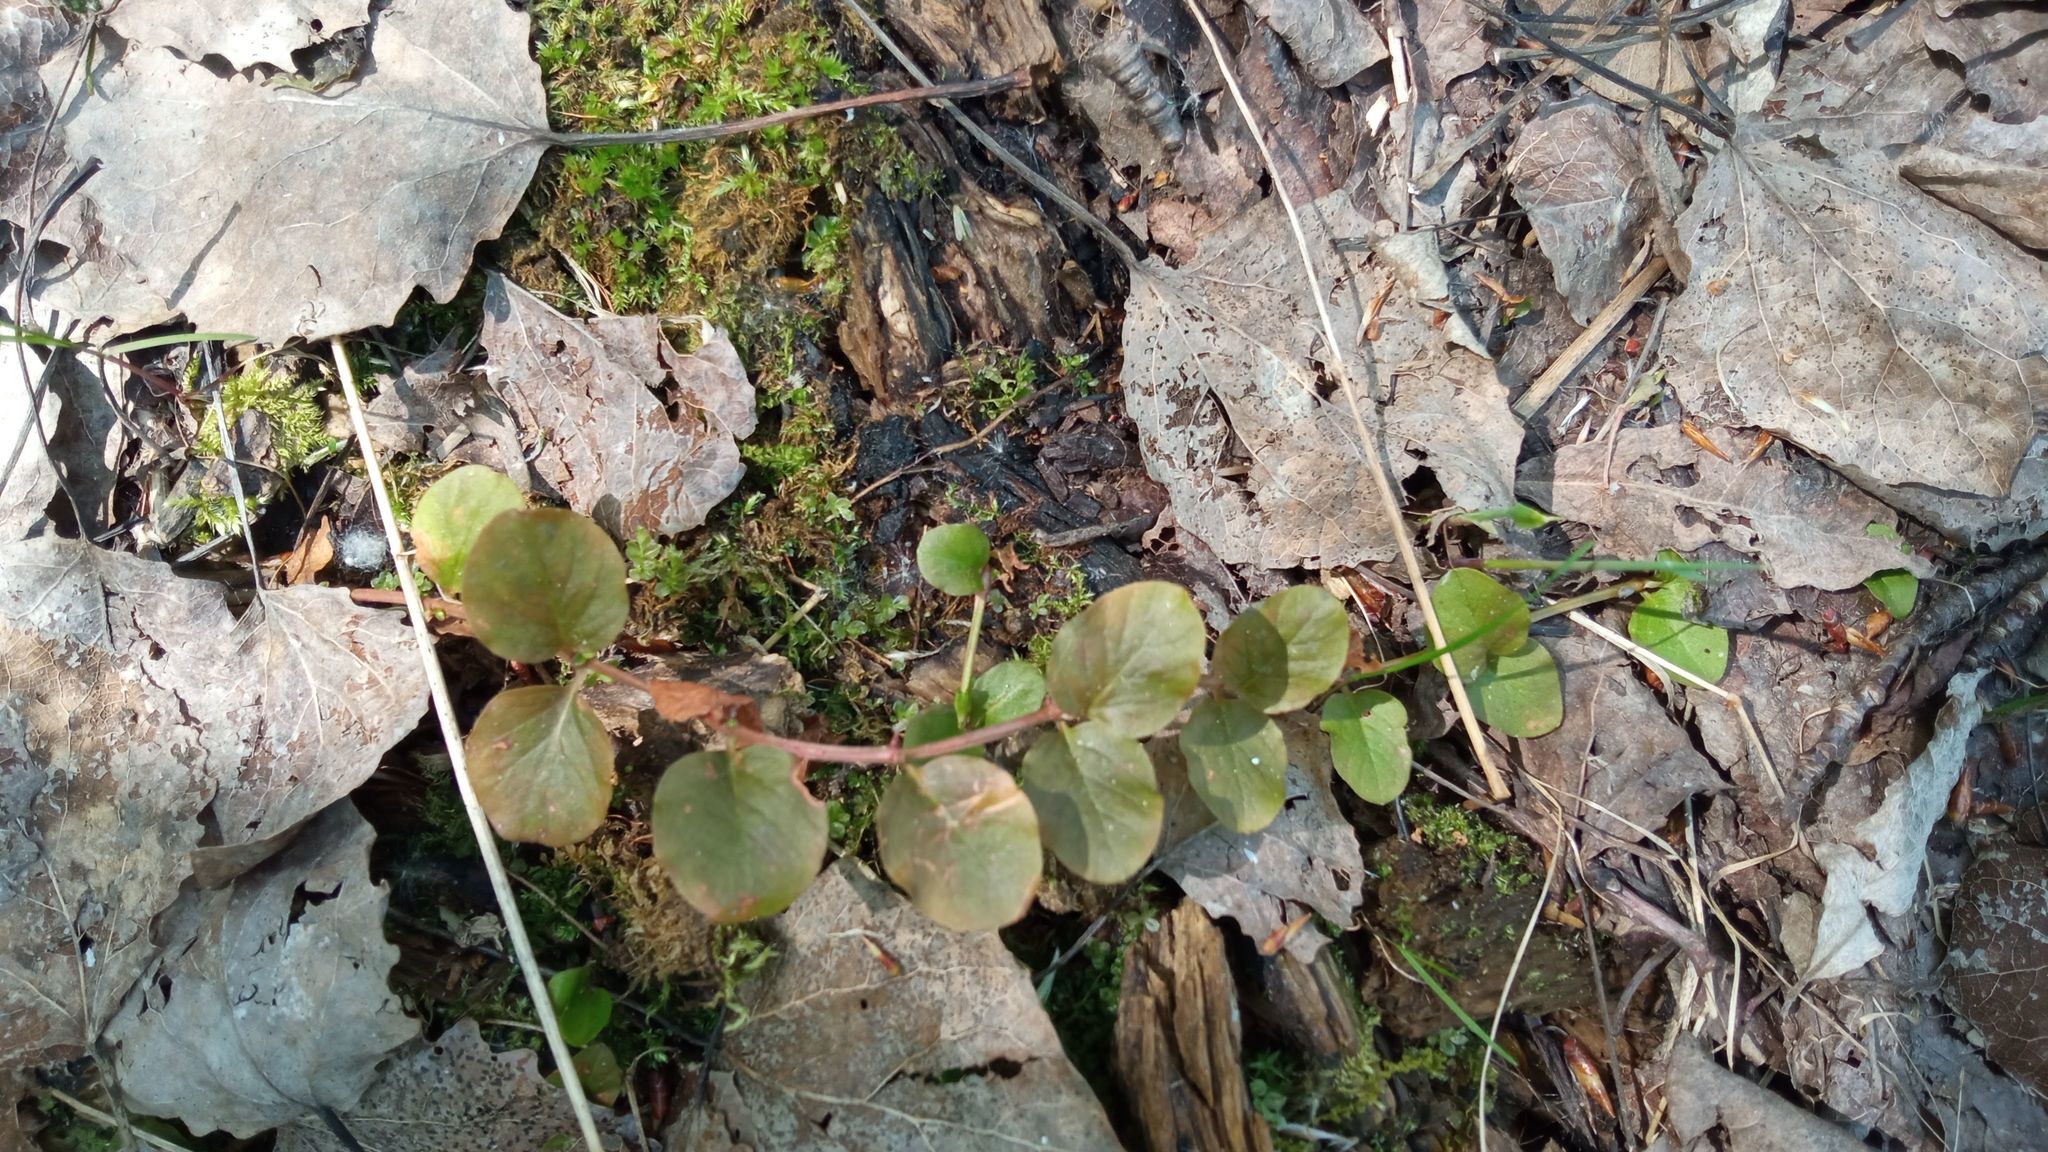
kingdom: Plantae
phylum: Tracheophyta
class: Magnoliopsida
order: Ericales
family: Primulaceae
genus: Lysimachia
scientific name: Lysimachia nummularia
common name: Moneywort
